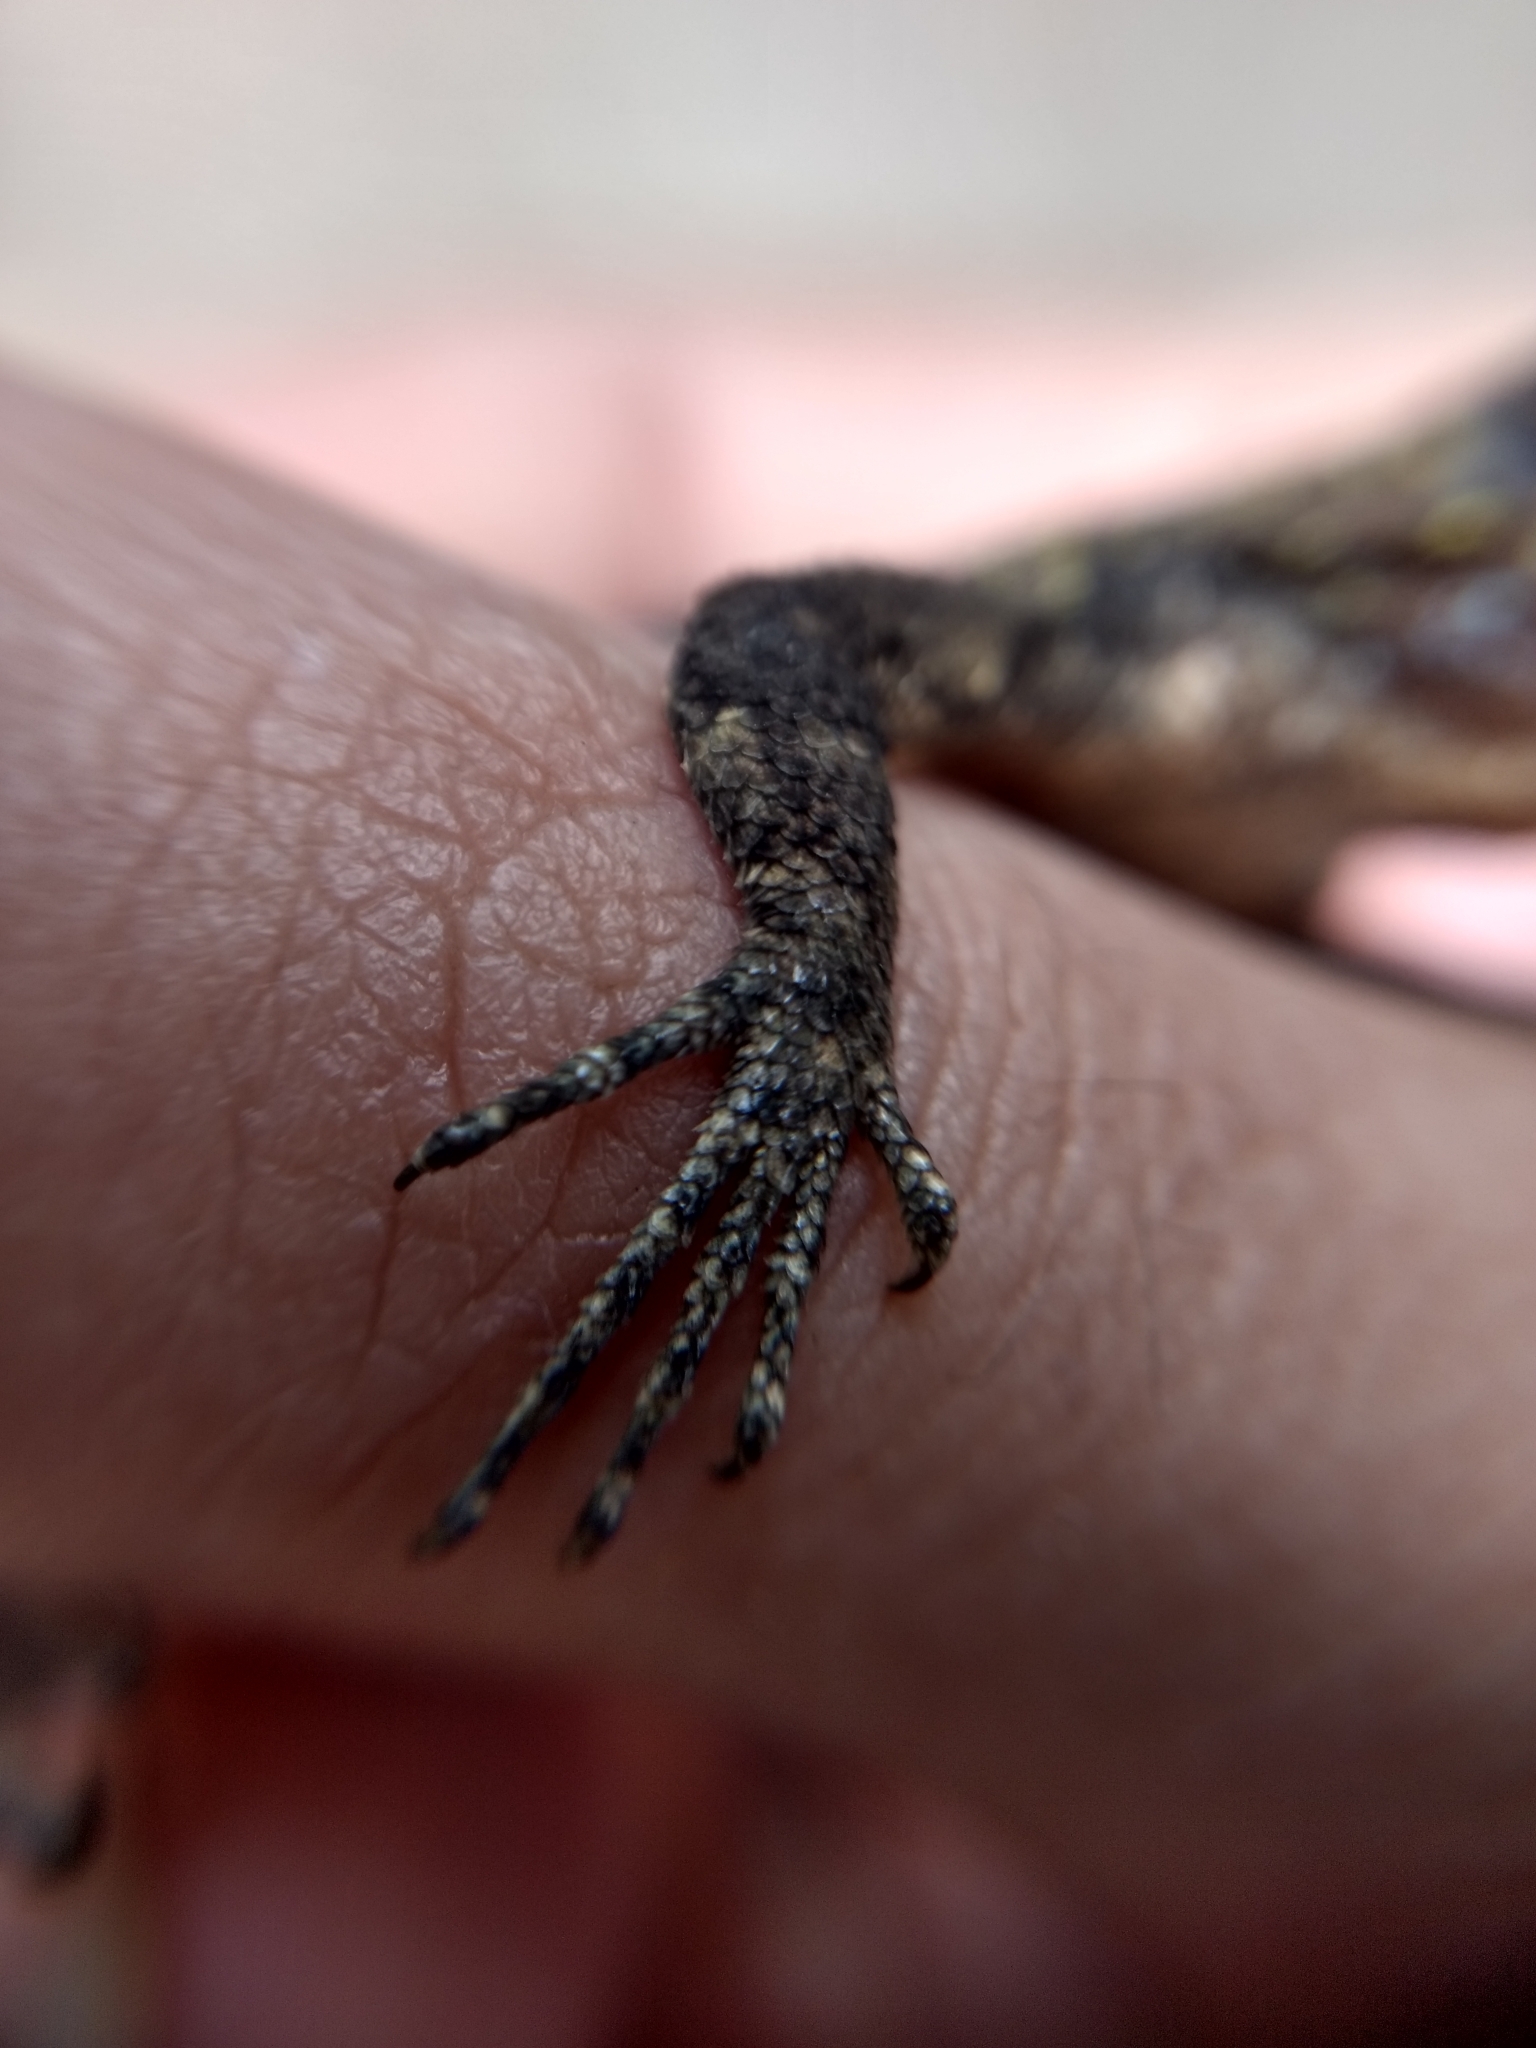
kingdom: Animalia
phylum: Chordata
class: Squamata
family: Phrynosomatidae
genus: Sceloporus
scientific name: Sceloporus grammicus
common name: Mesquite lizard
